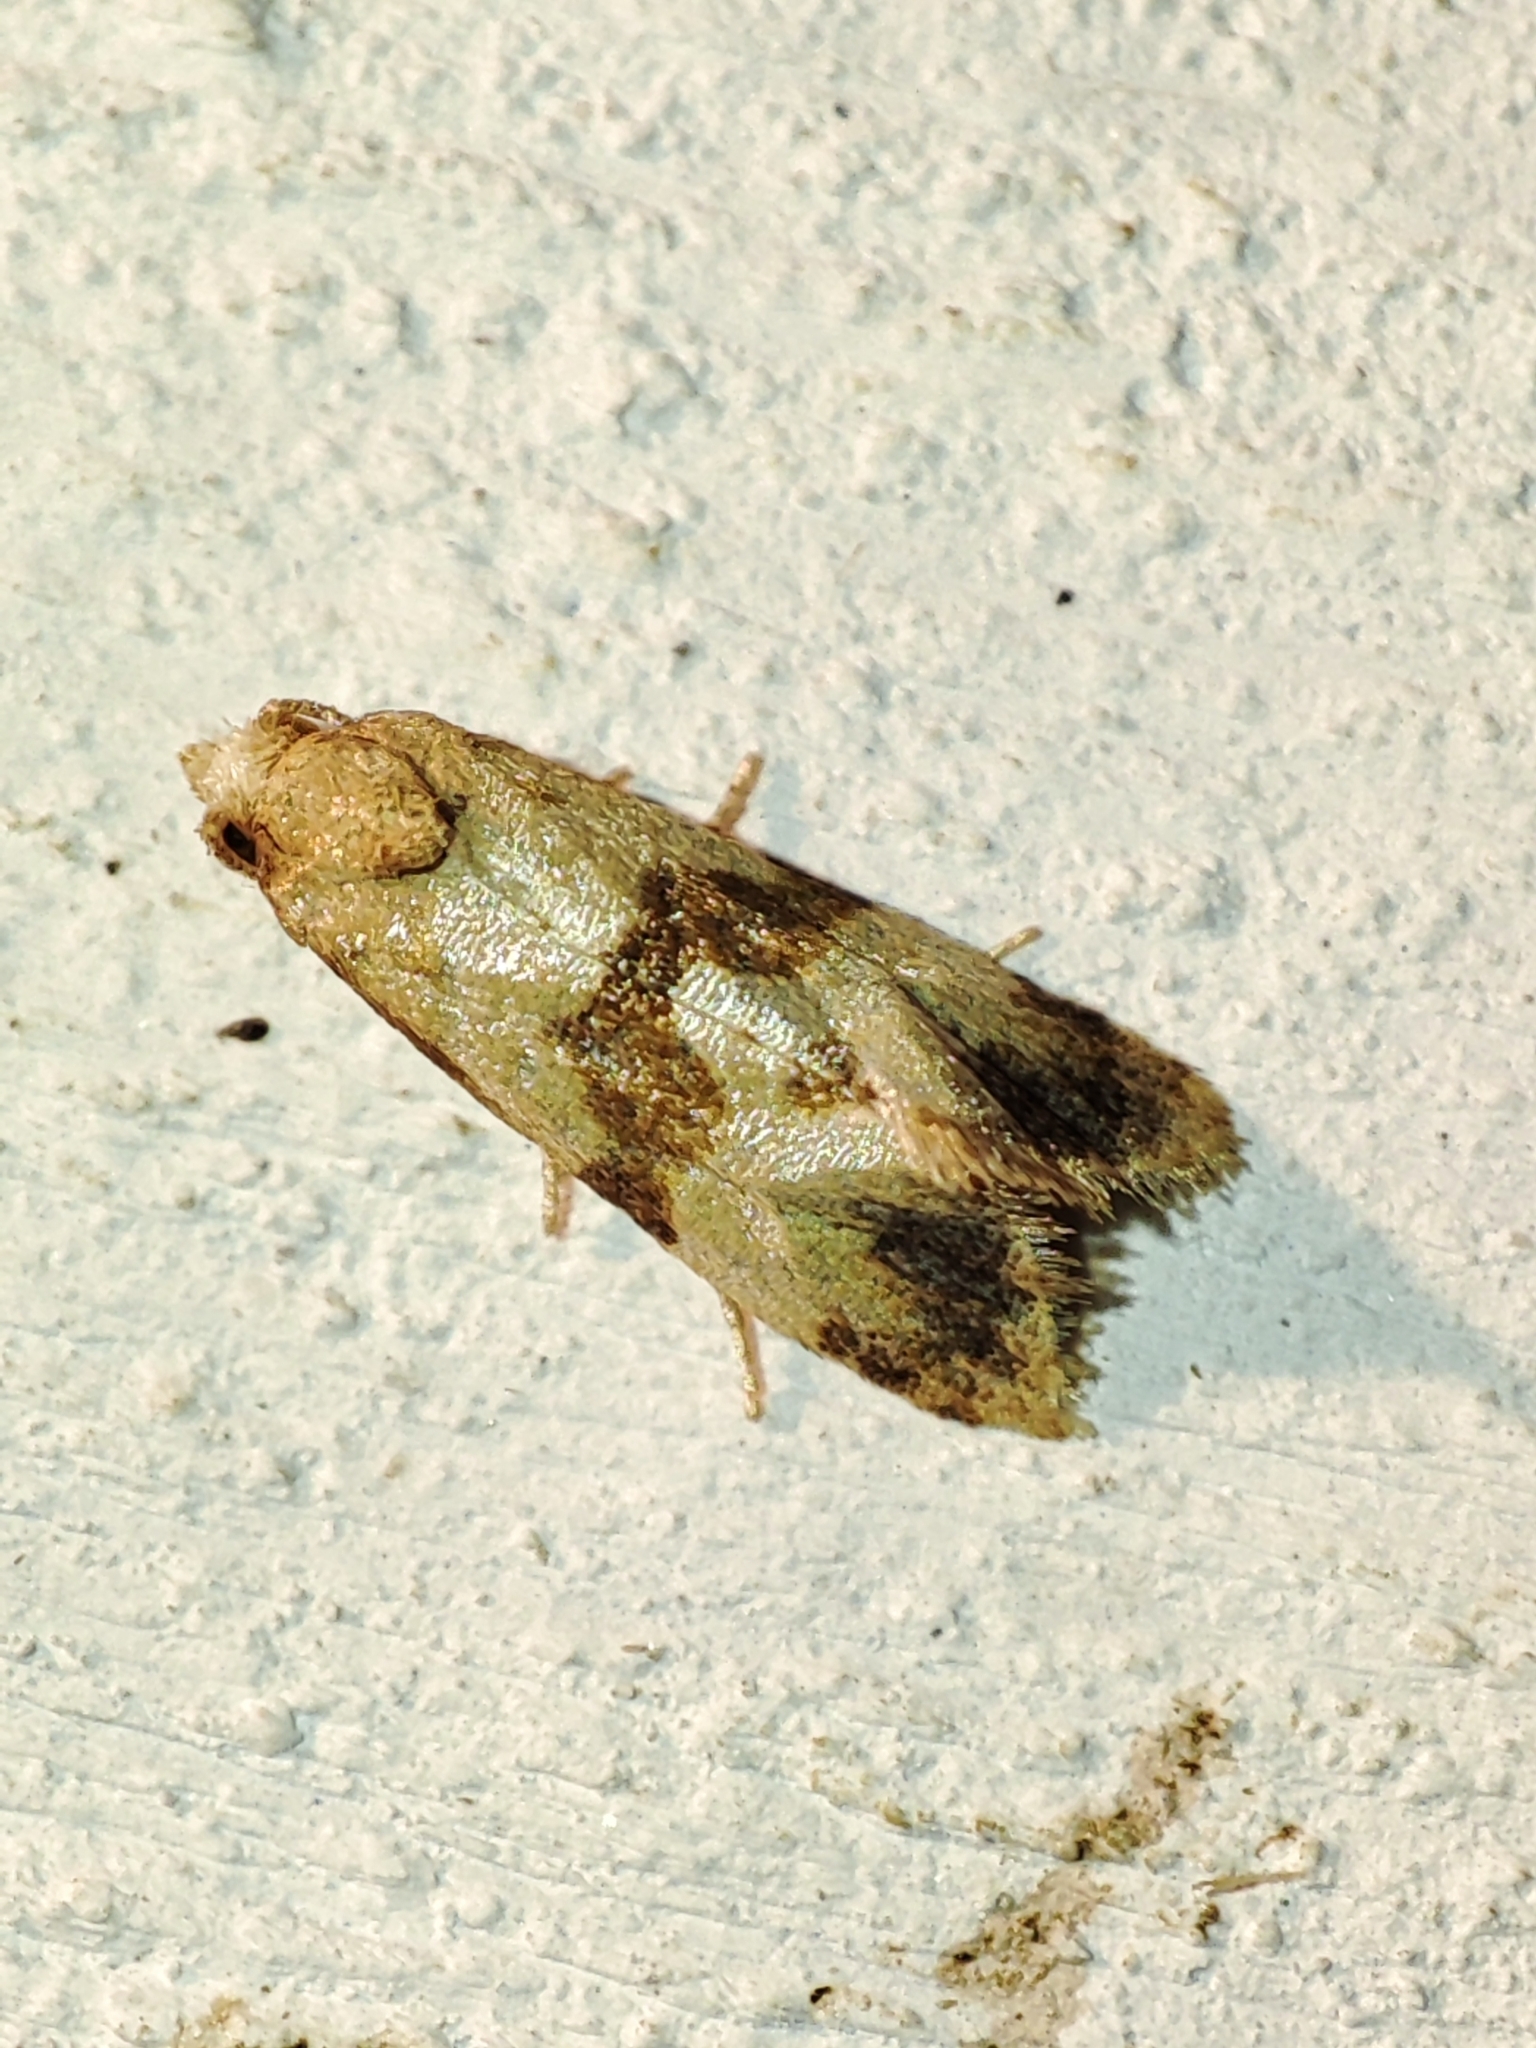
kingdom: Animalia
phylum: Arthropoda
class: Insecta
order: Lepidoptera
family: Tortricidae
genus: Phalonidia
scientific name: Phalonidia contractana
